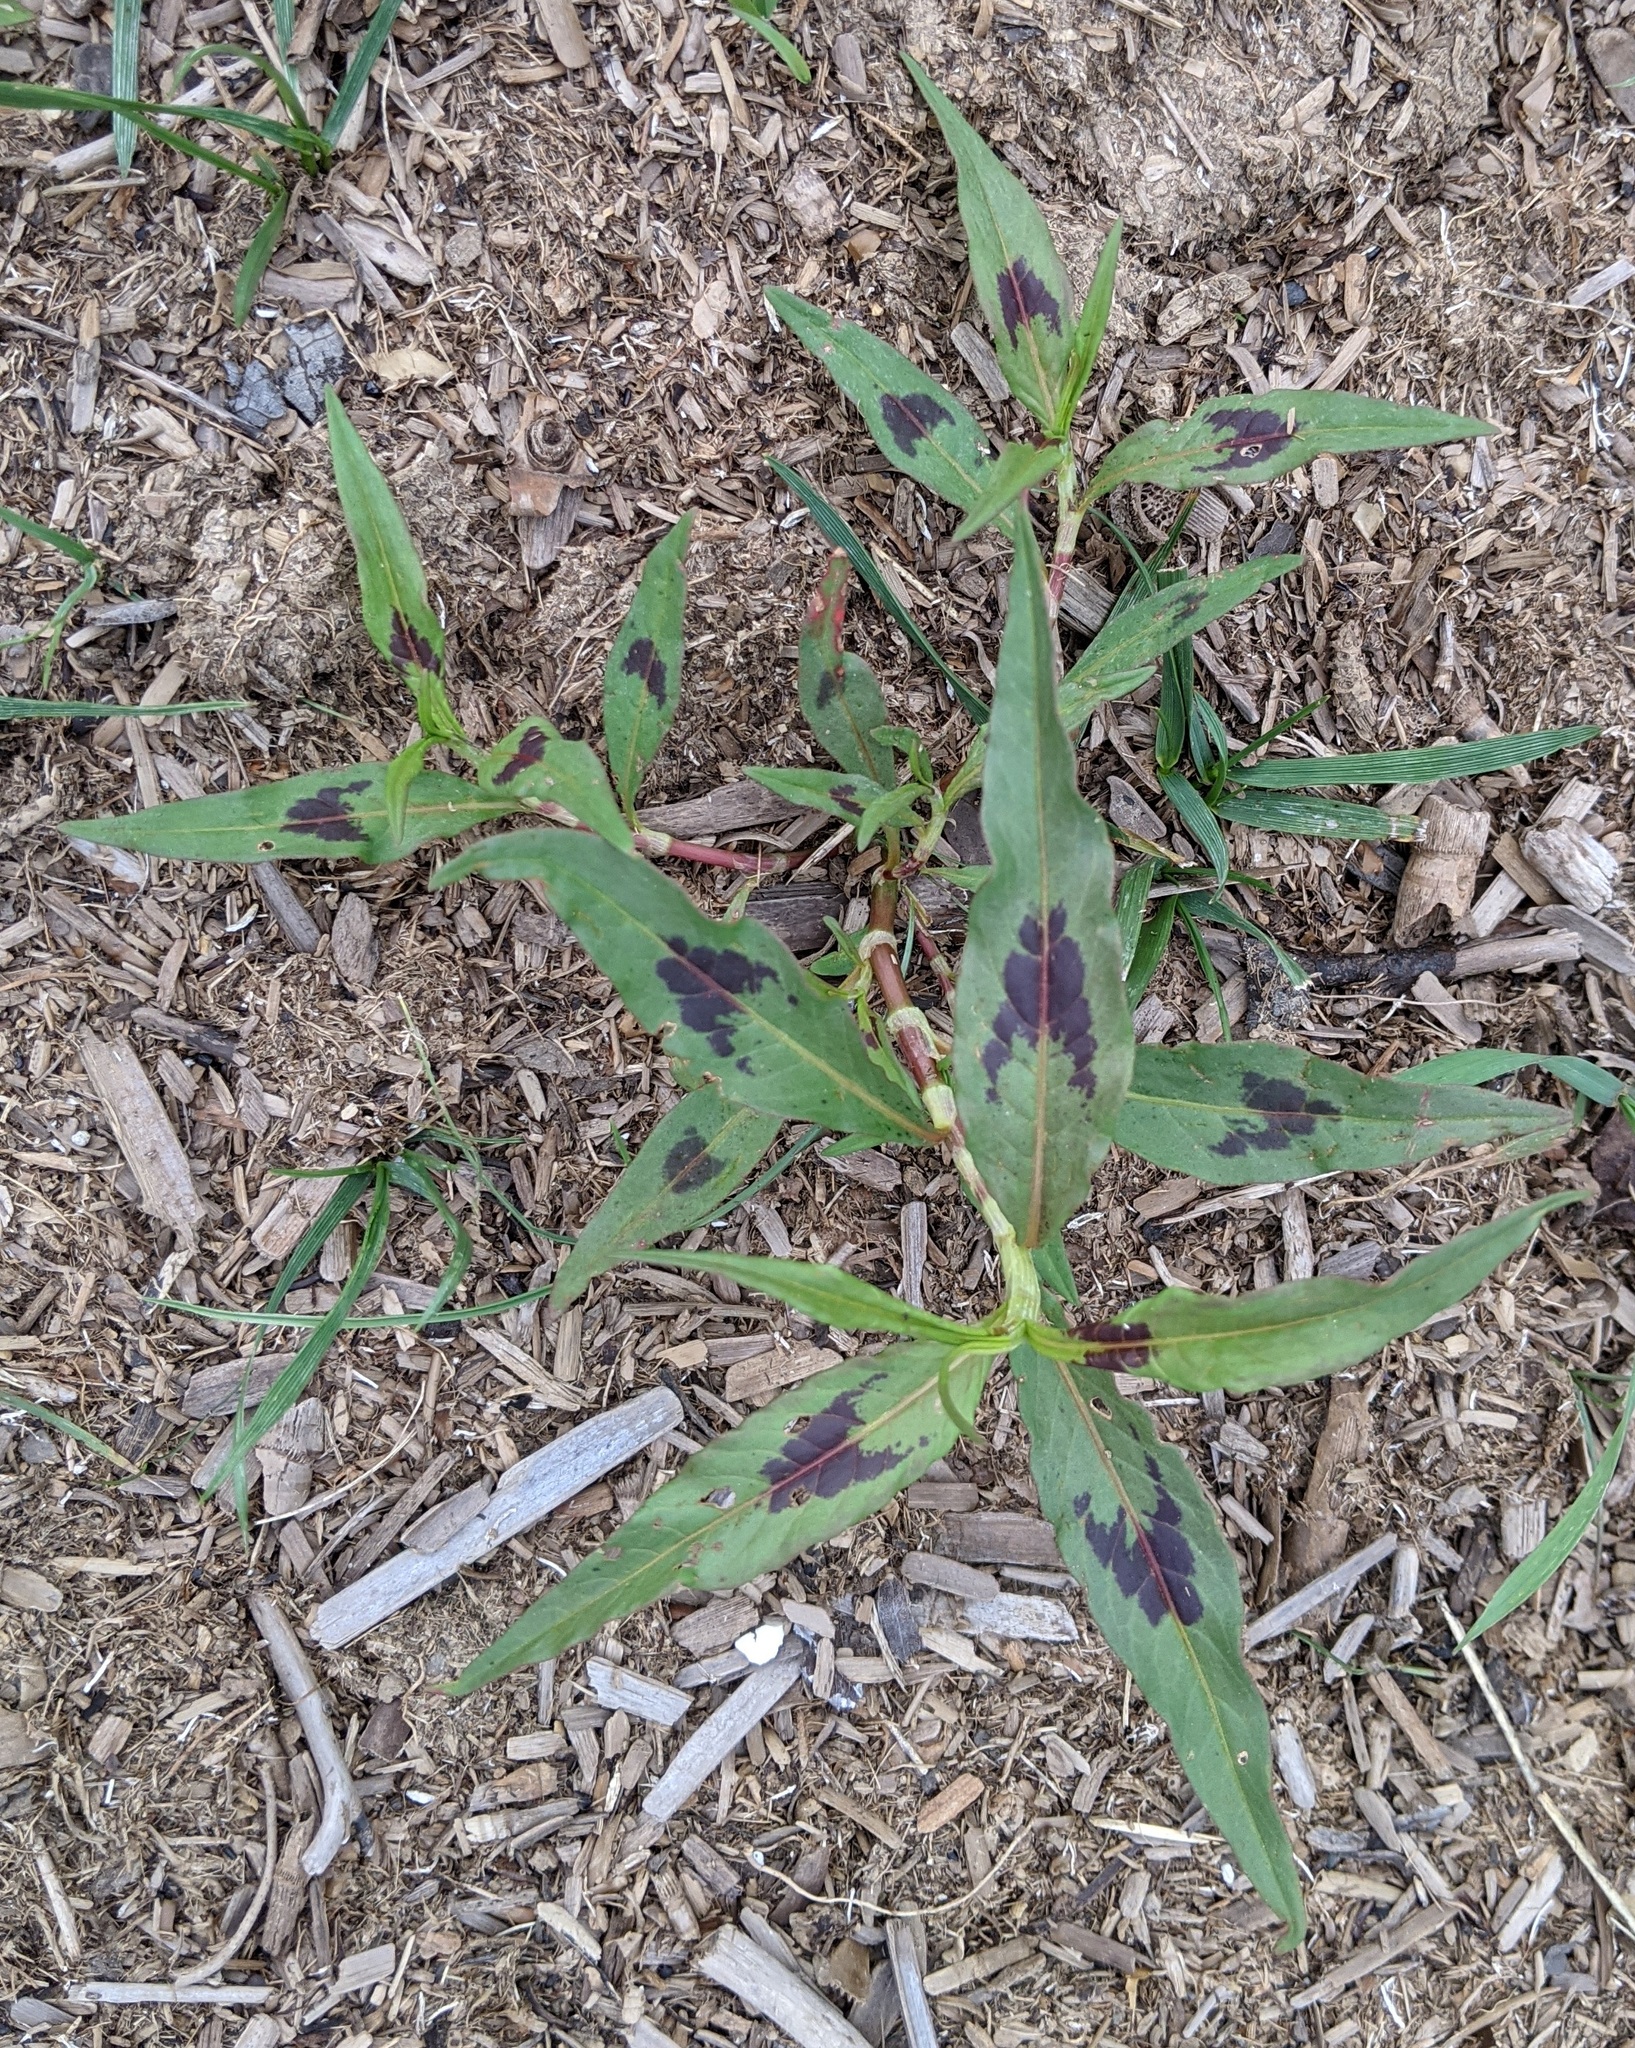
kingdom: Plantae
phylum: Tracheophyta
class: Magnoliopsida
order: Caryophyllales
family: Polygonaceae
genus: Persicaria
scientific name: Persicaria maculosa
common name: Redshank
